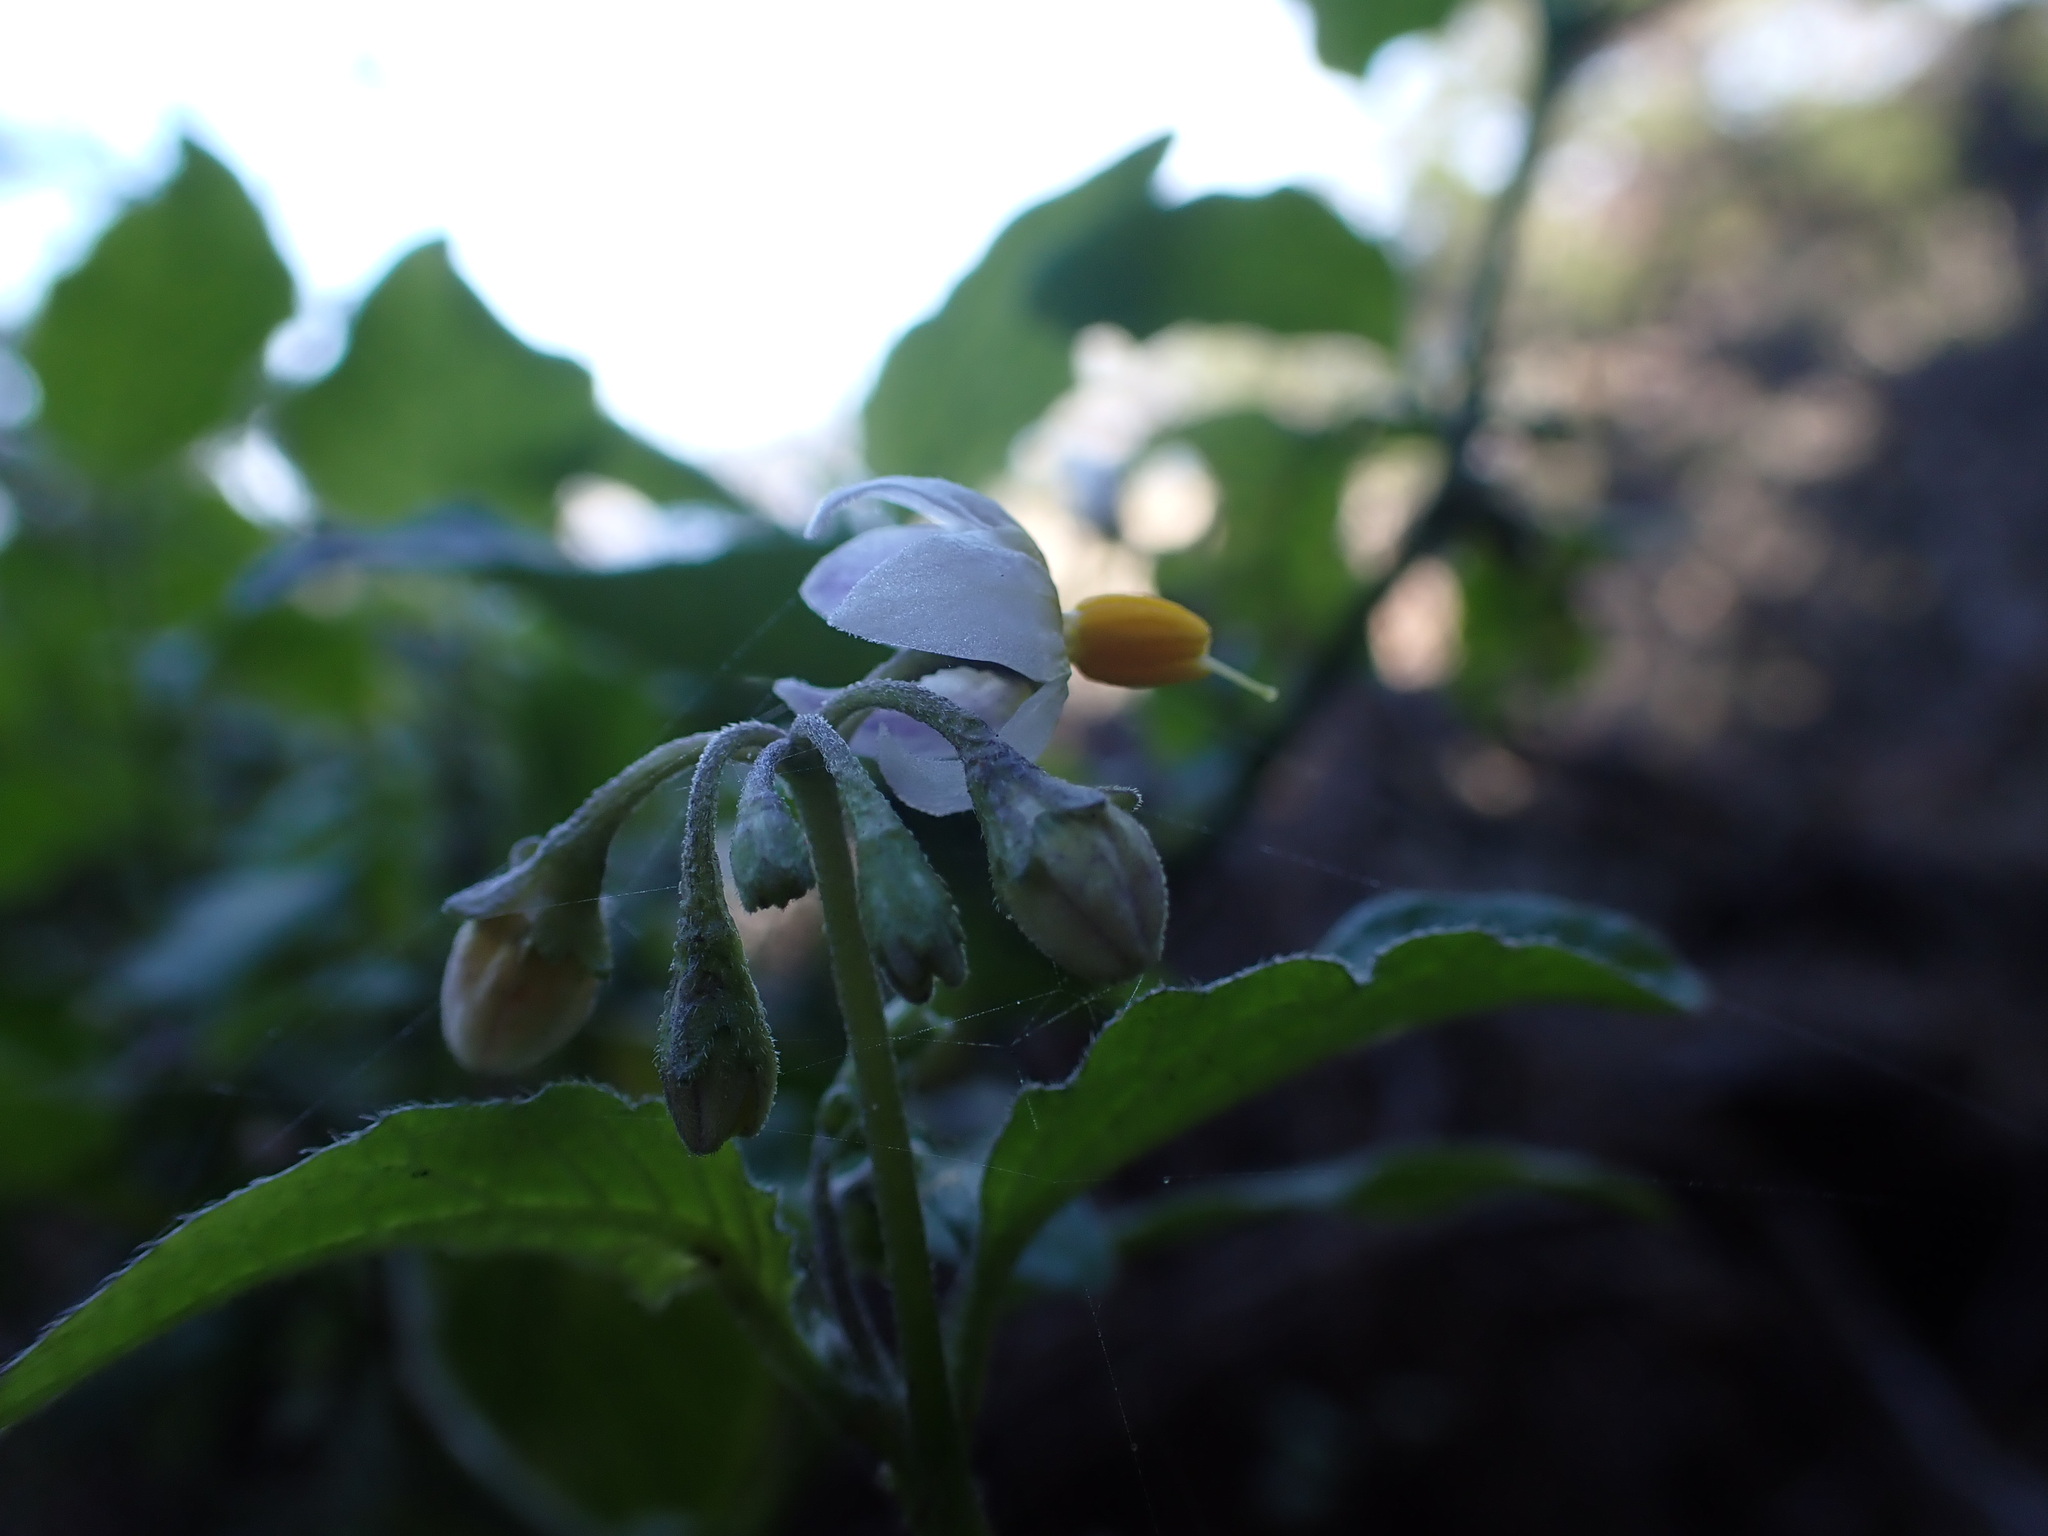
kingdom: Plantae
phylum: Tracheophyta
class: Magnoliopsida
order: Solanales
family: Solanaceae
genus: Solanum
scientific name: Solanum furcatum
